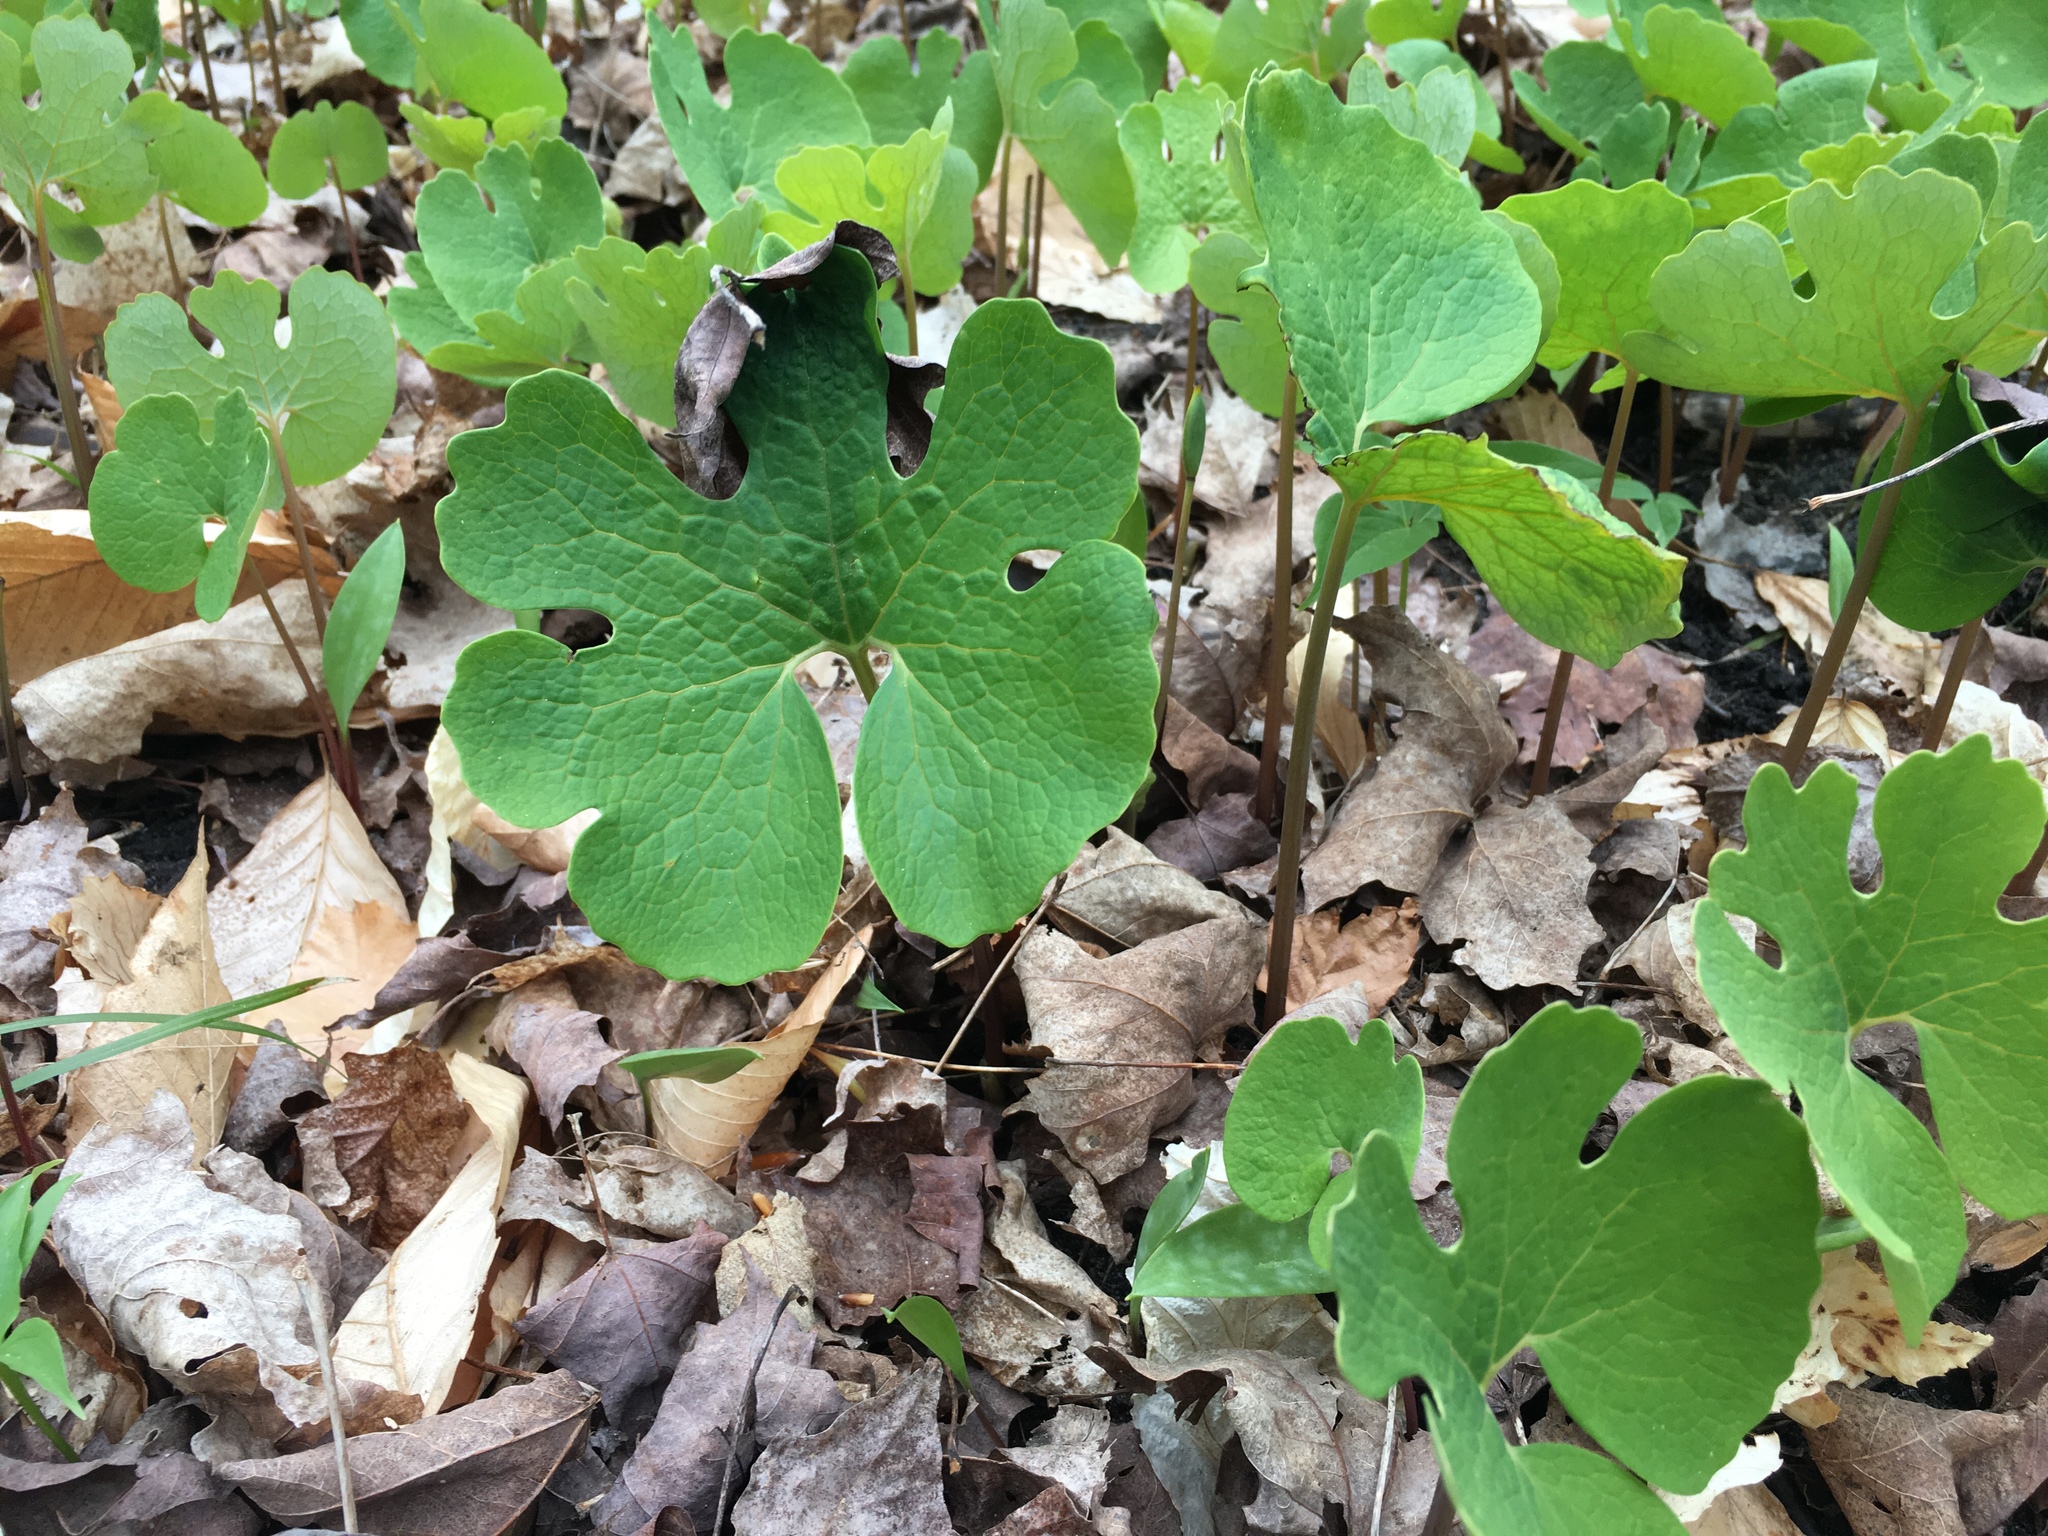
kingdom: Plantae
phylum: Tracheophyta
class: Magnoliopsida
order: Ranunculales
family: Papaveraceae
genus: Sanguinaria
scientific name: Sanguinaria canadensis
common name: Bloodroot
